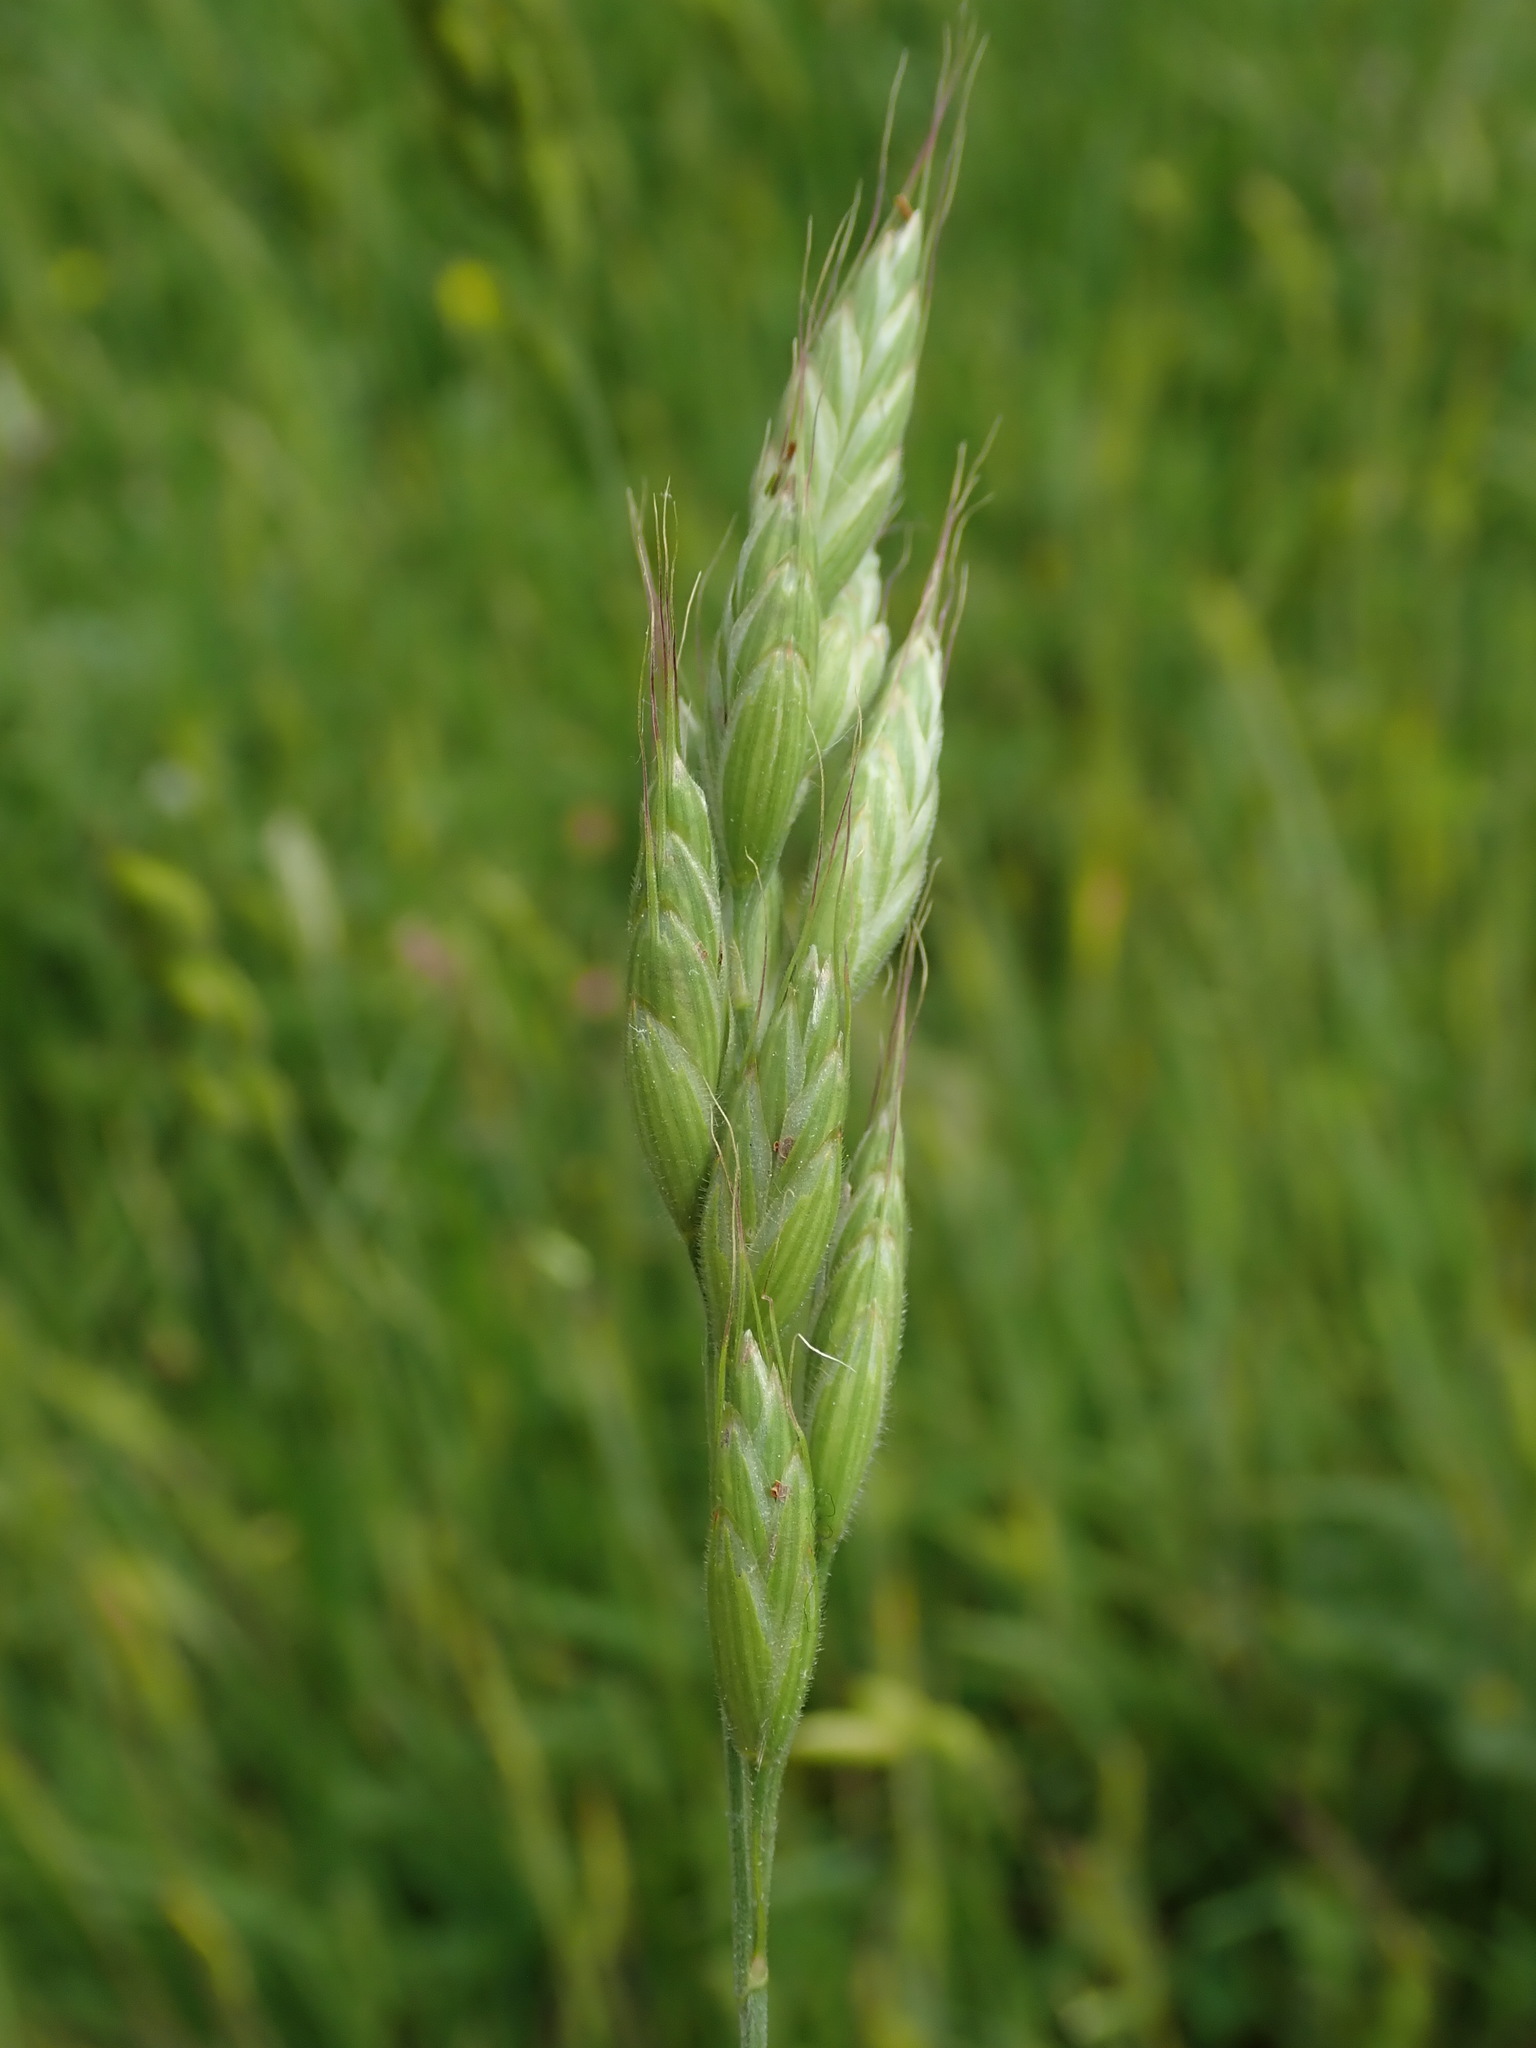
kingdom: Plantae
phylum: Tracheophyta
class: Liliopsida
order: Poales
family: Poaceae
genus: Bromus
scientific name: Bromus hordeaceus
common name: Soft brome
